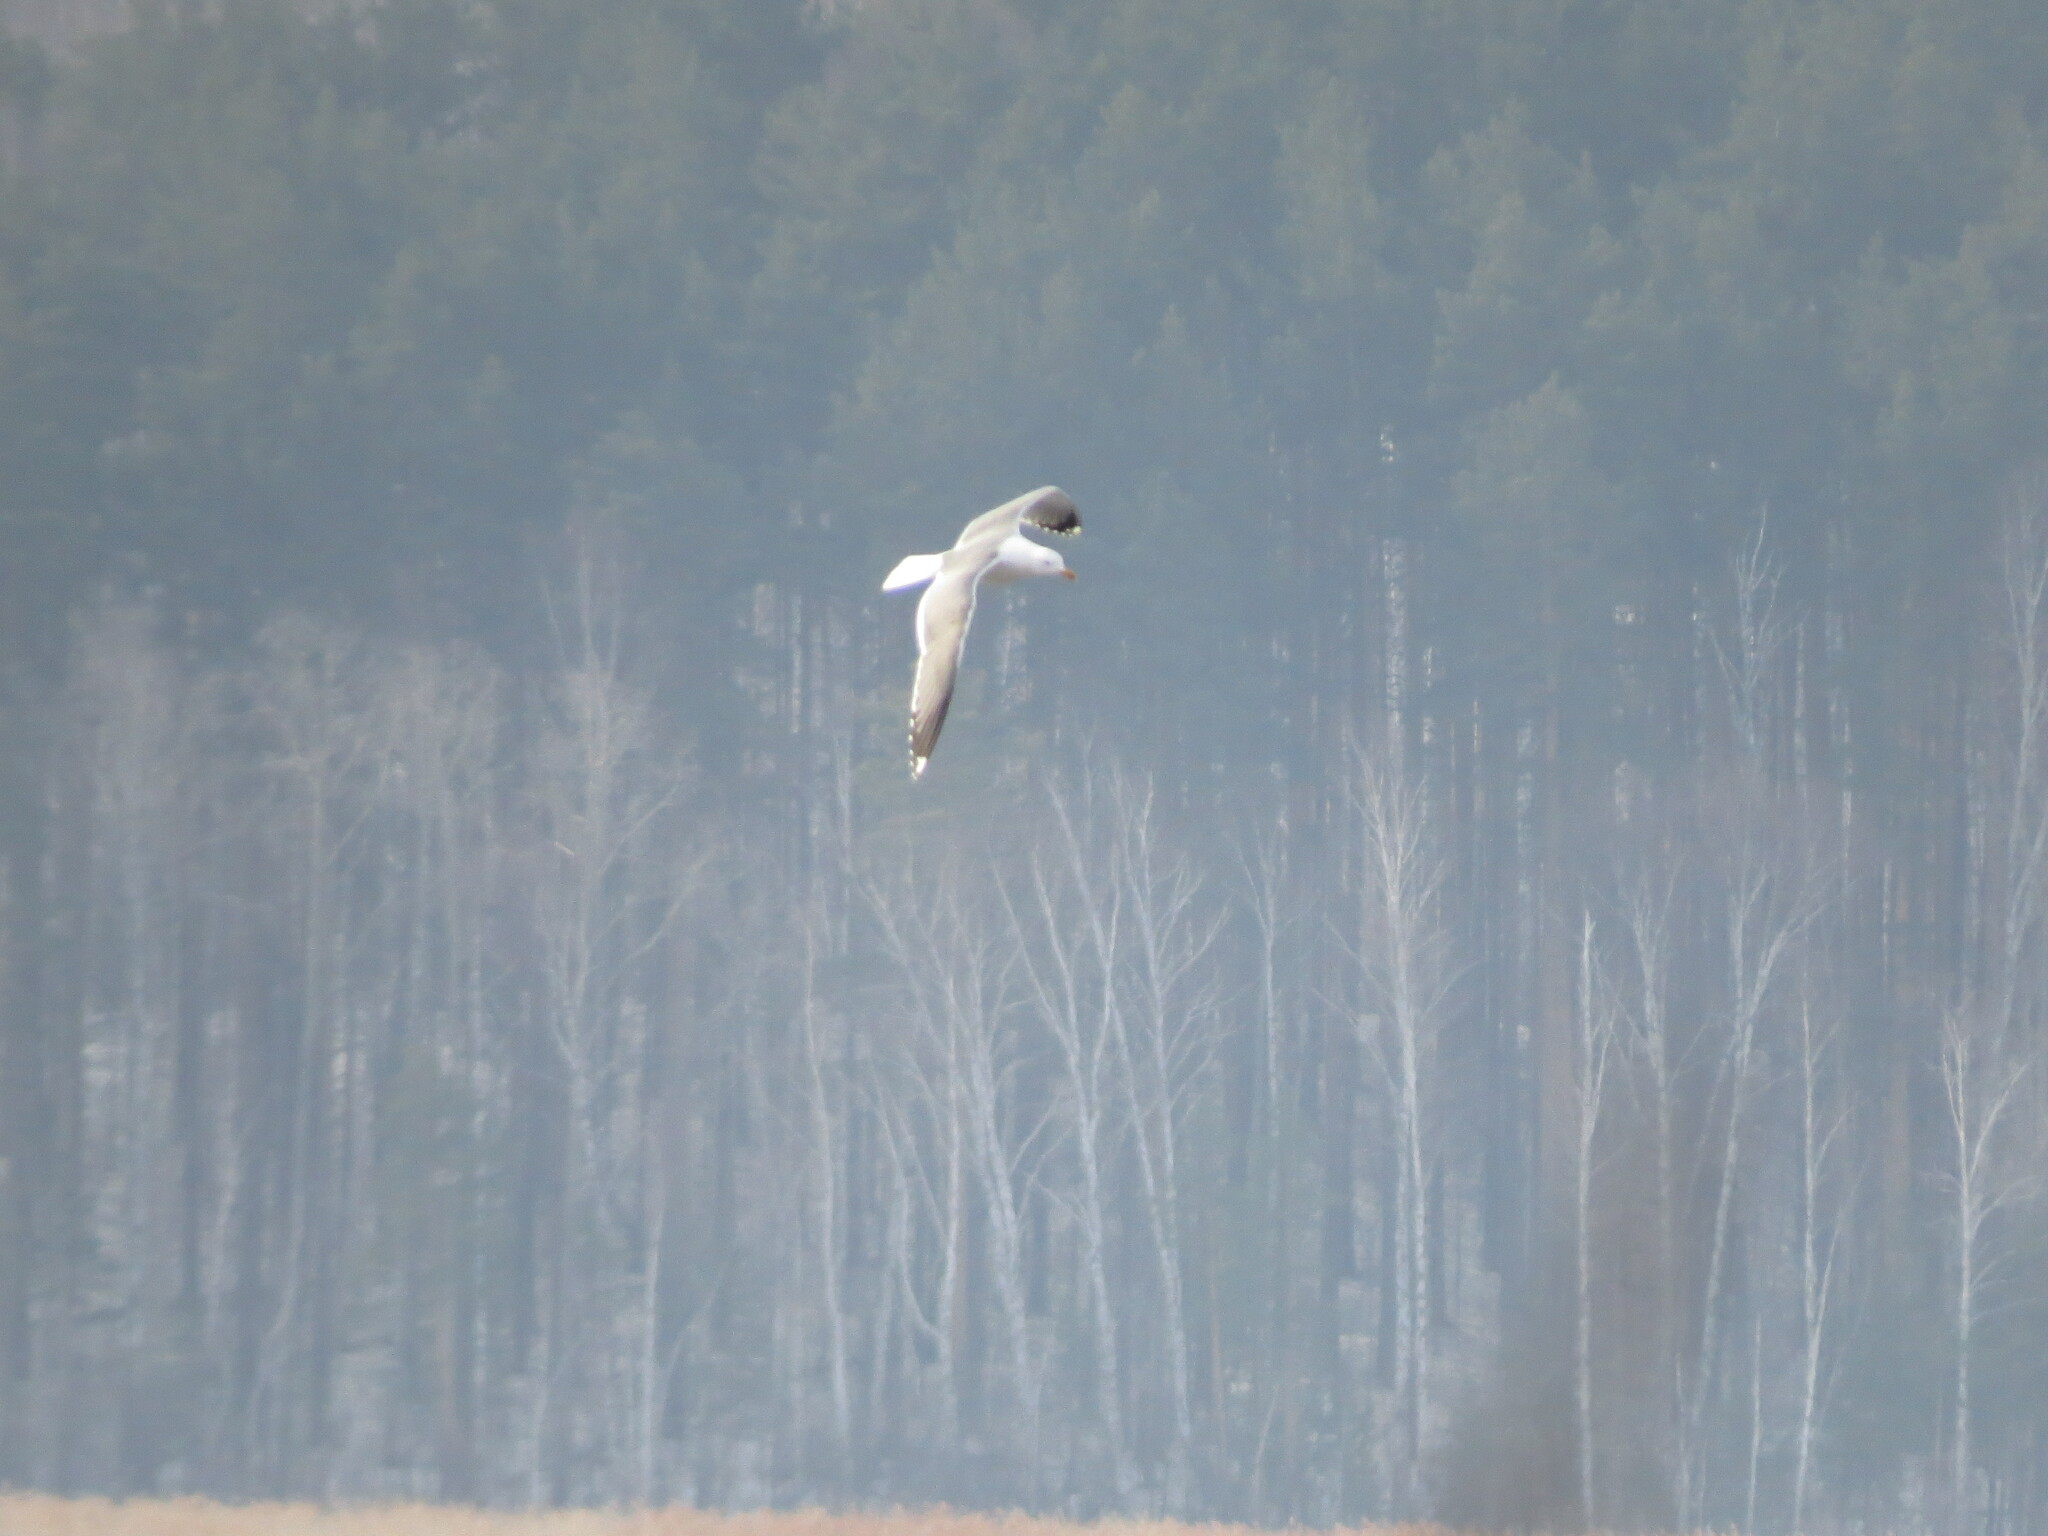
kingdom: Animalia
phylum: Chordata
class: Aves
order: Charadriiformes
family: Laridae
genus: Larus
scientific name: Larus fuscus
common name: Lesser black-backed gull
